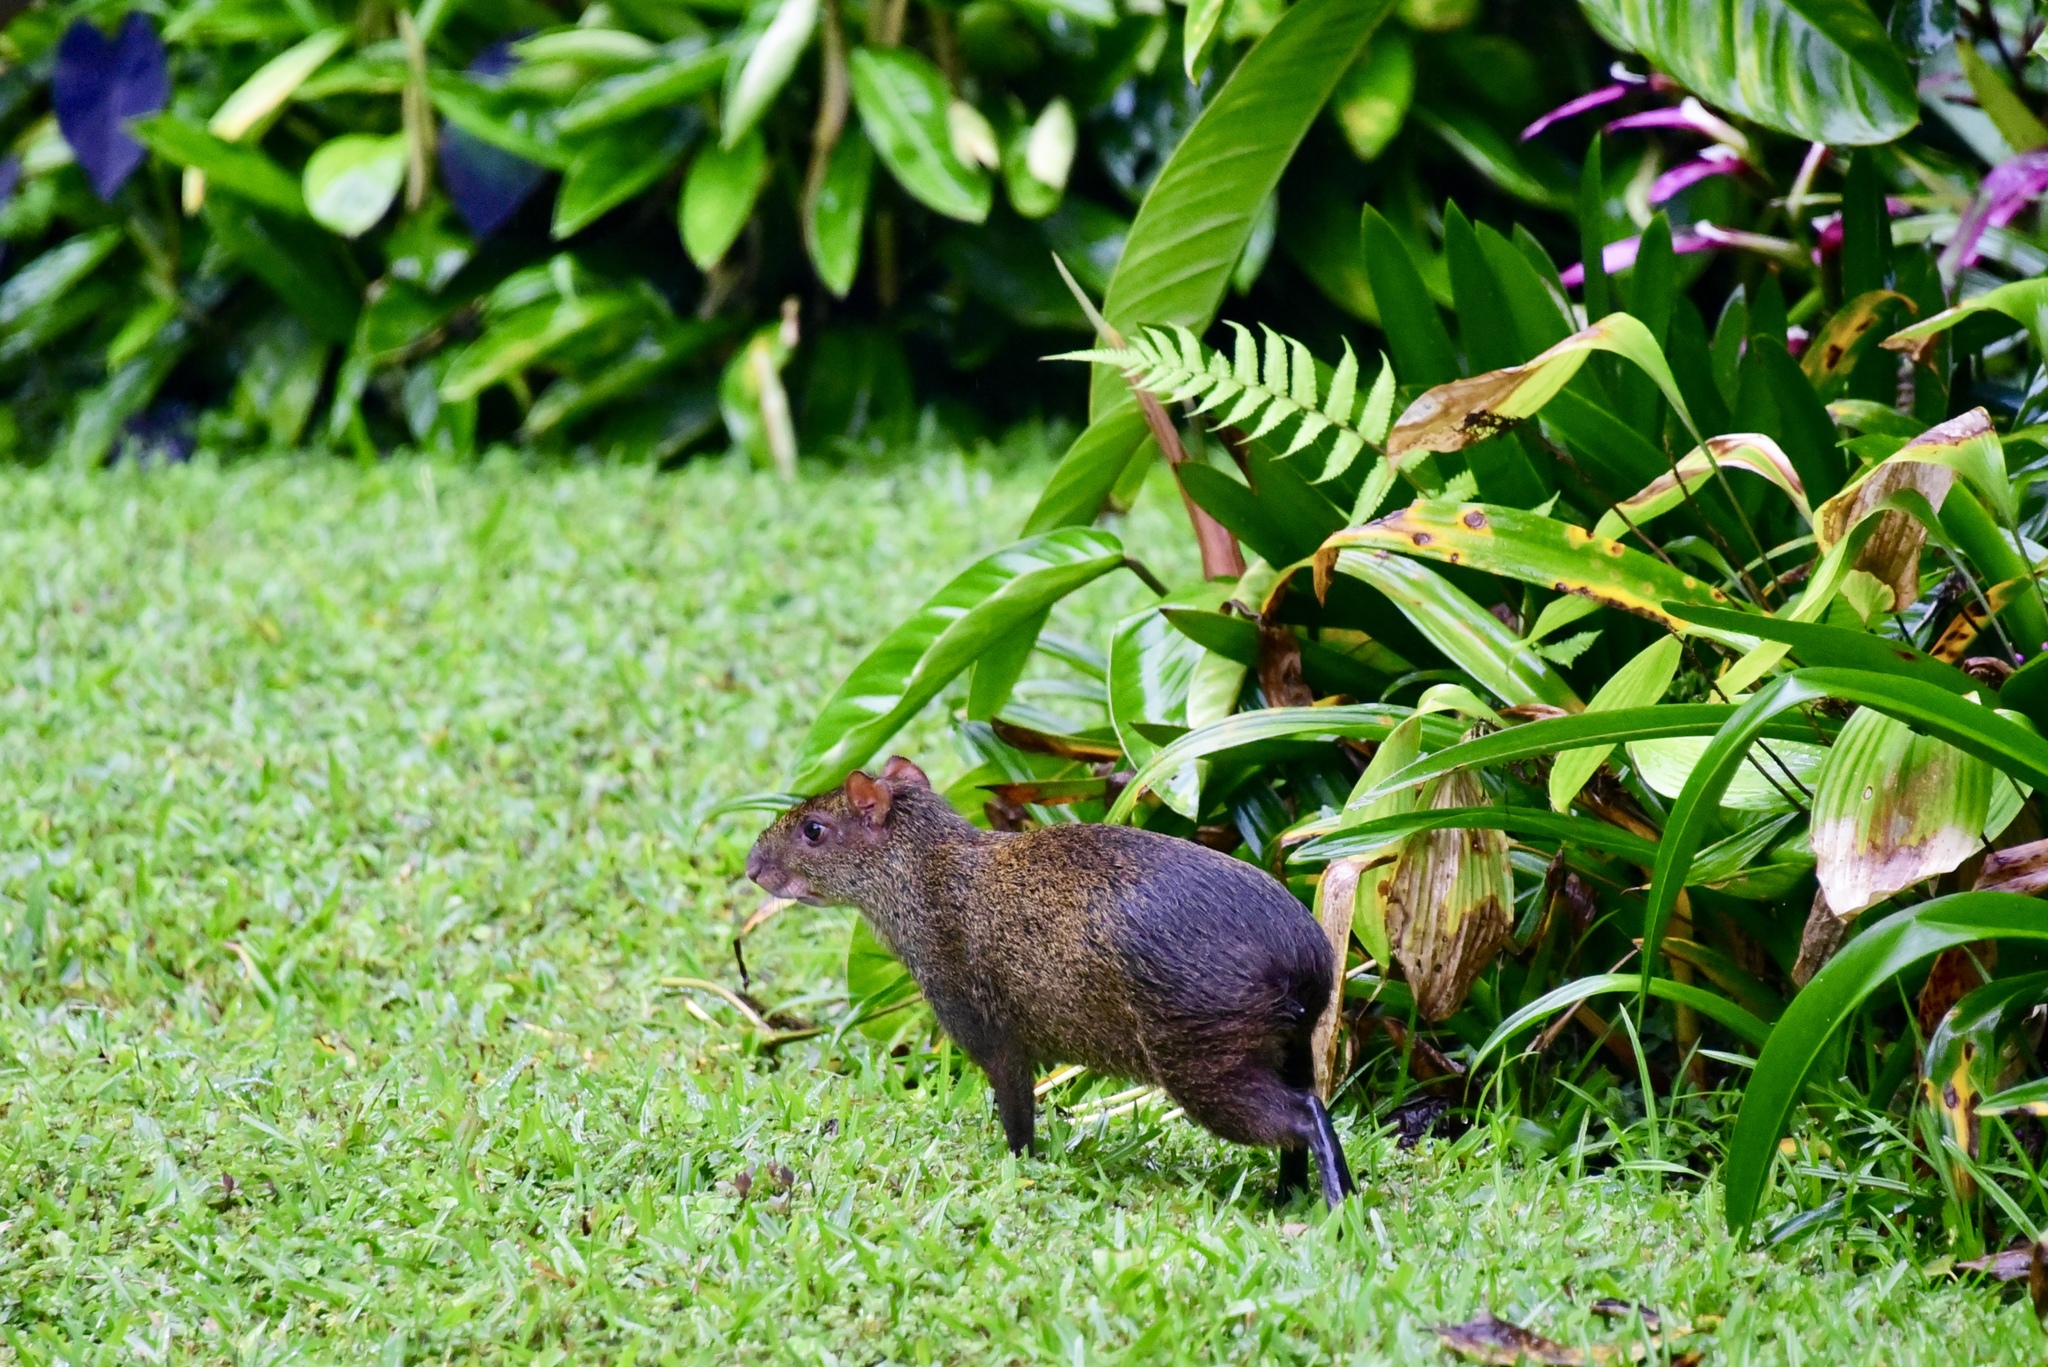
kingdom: Animalia
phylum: Chordata
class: Mammalia
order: Rodentia
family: Dasyproctidae
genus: Dasyprocta
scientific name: Dasyprocta punctata
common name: Central american agouti
